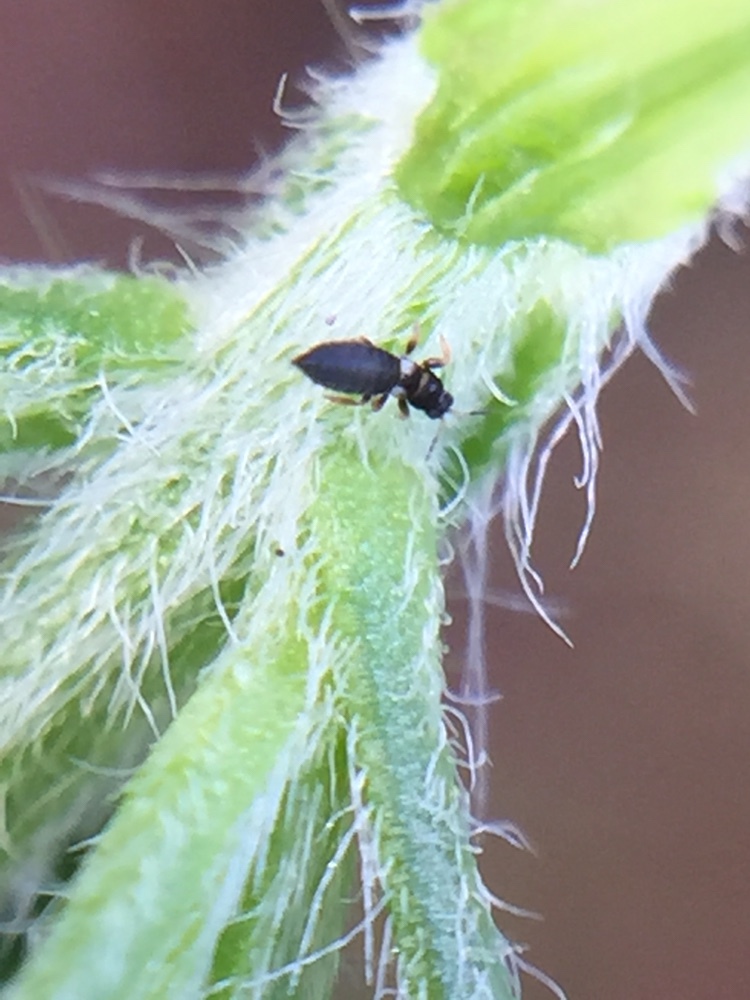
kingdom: Animalia
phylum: Arthropoda
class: Insecta
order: Thysanoptera
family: Thripidae
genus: Sericothrips
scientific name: Sericothrips staphylinus
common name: Gorse thrips
